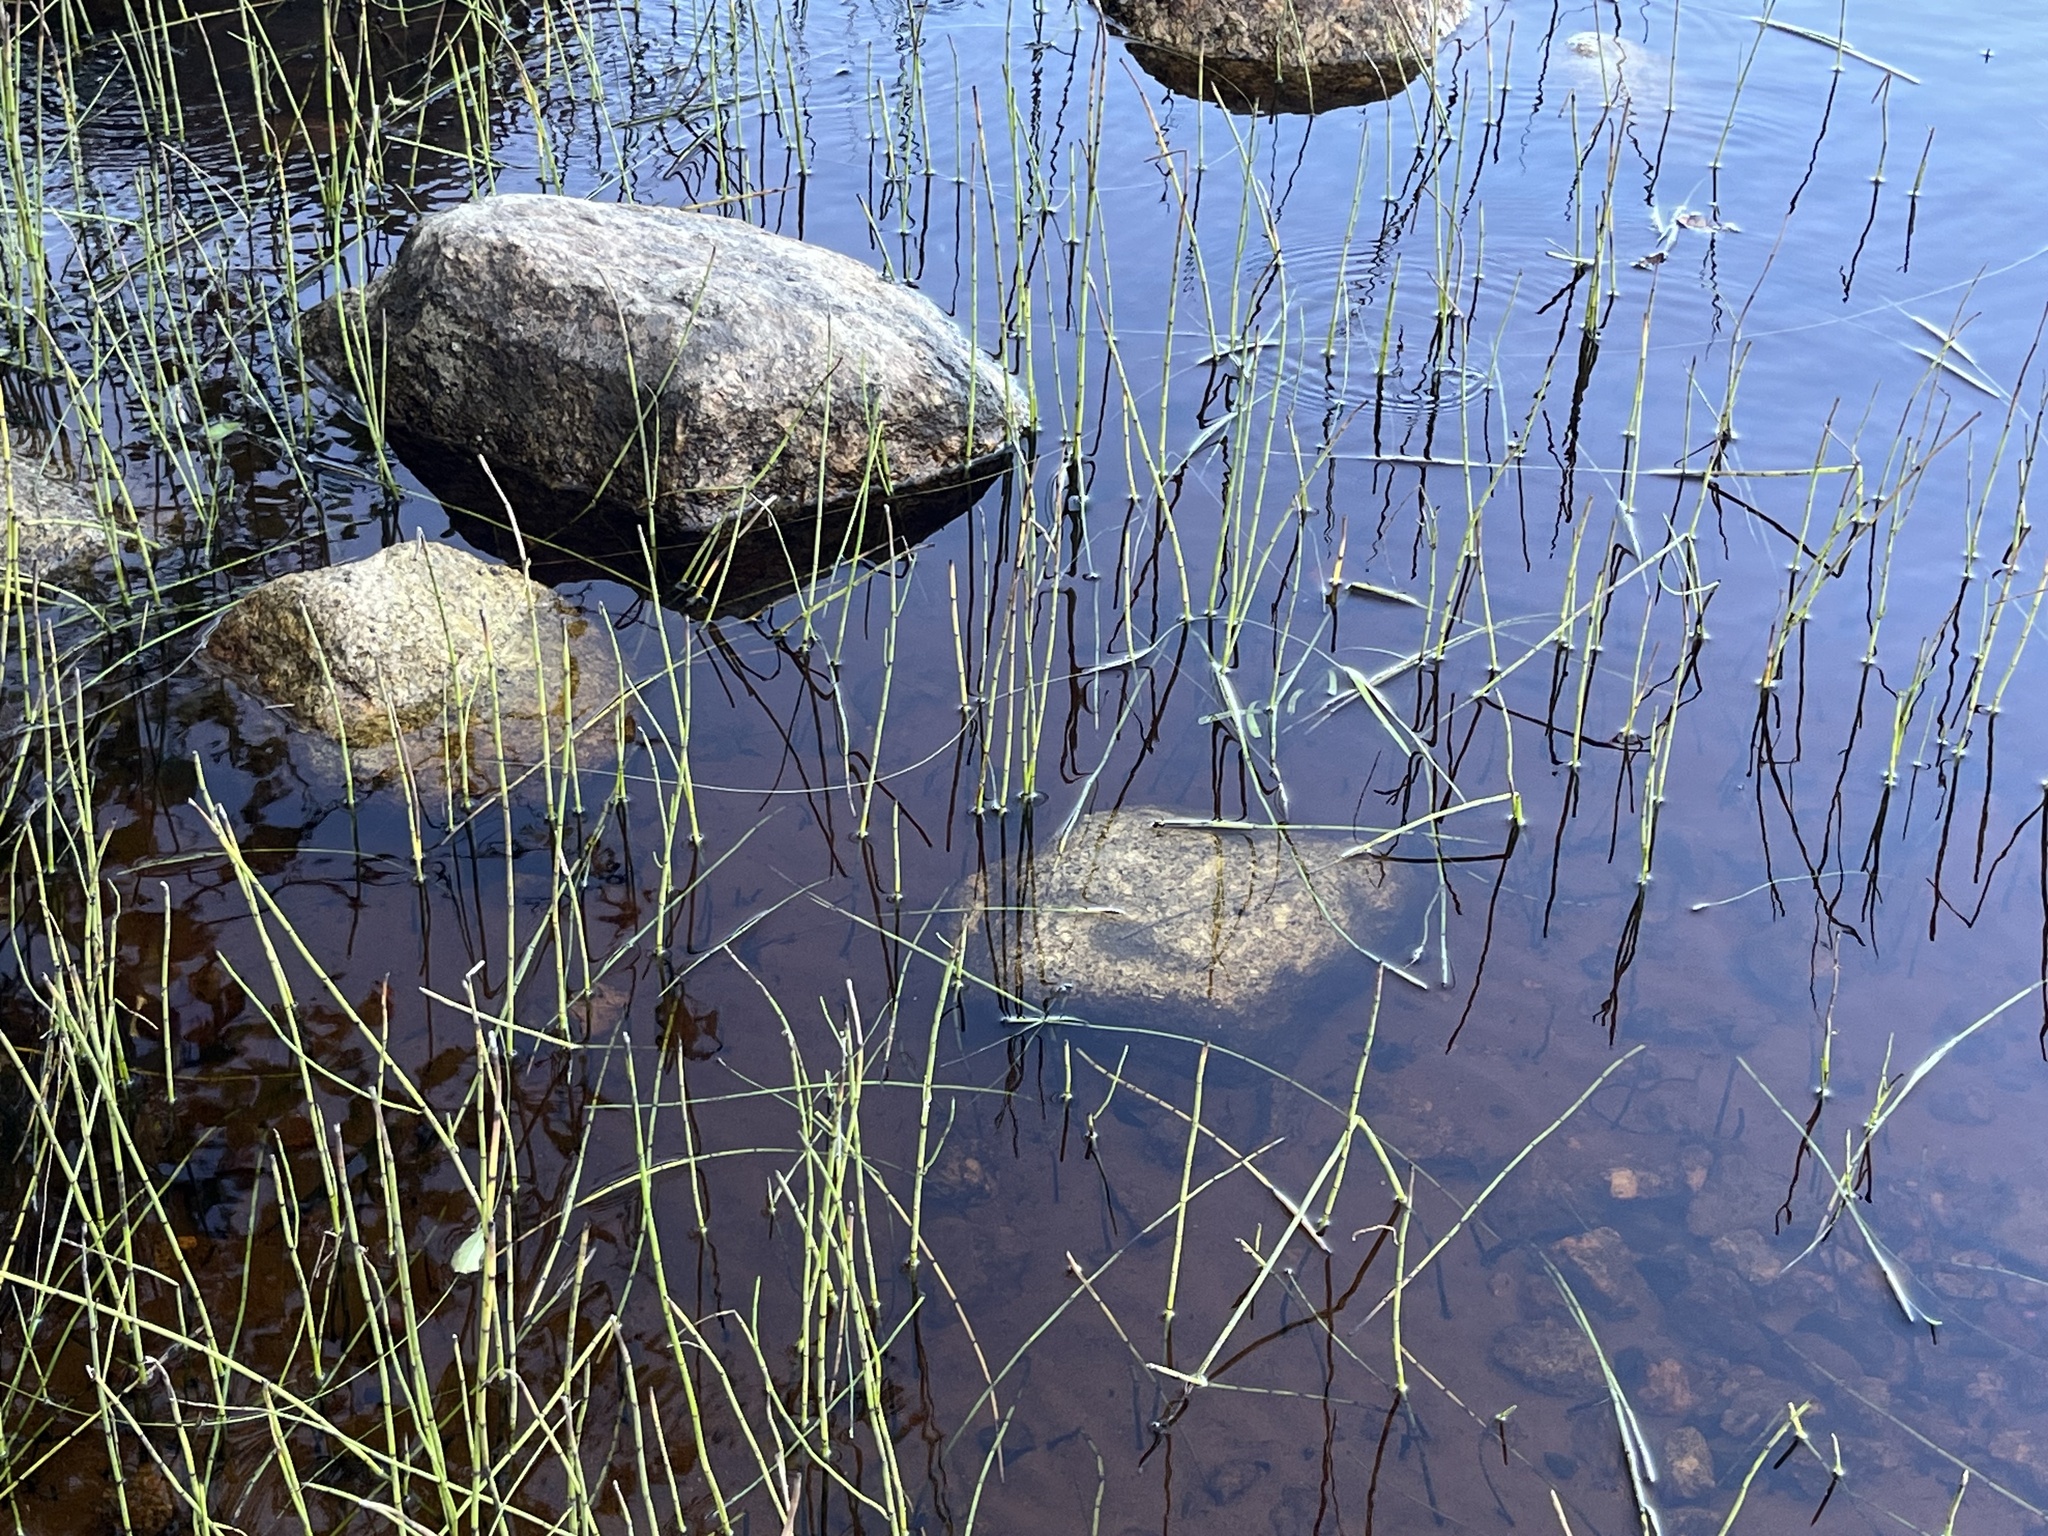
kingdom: Plantae
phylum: Tracheophyta
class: Polypodiopsida
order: Equisetales
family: Equisetaceae
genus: Equisetum
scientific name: Equisetum fluviatile
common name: Water horsetail
